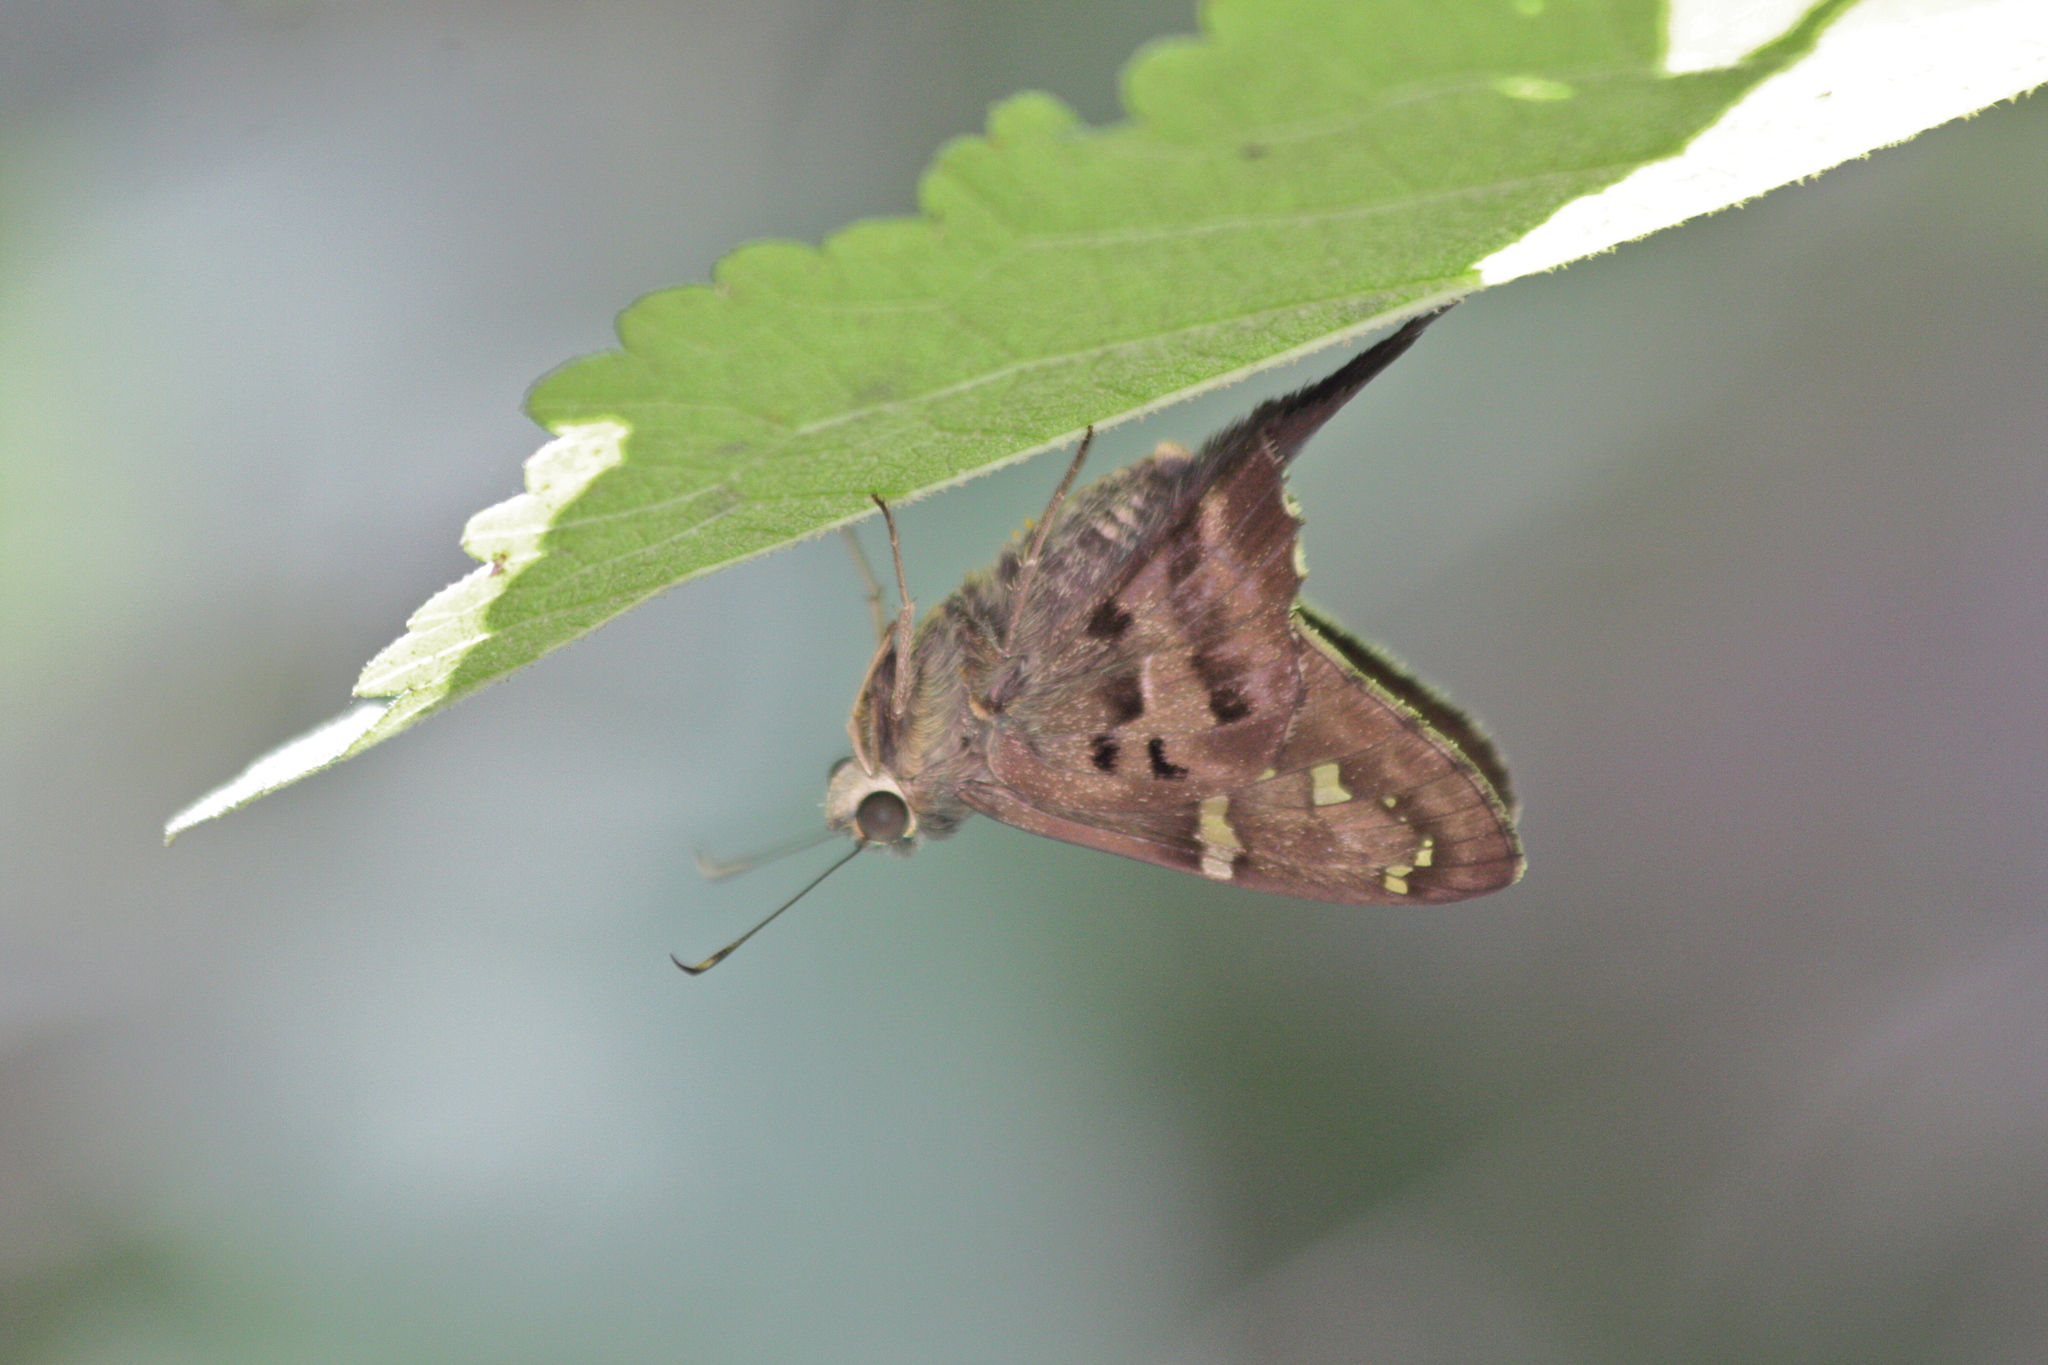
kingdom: Animalia
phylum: Arthropoda
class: Insecta
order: Lepidoptera
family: Hesperiidae
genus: Urbanus
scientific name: Urbanus proteus
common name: Long-tailed skipper
